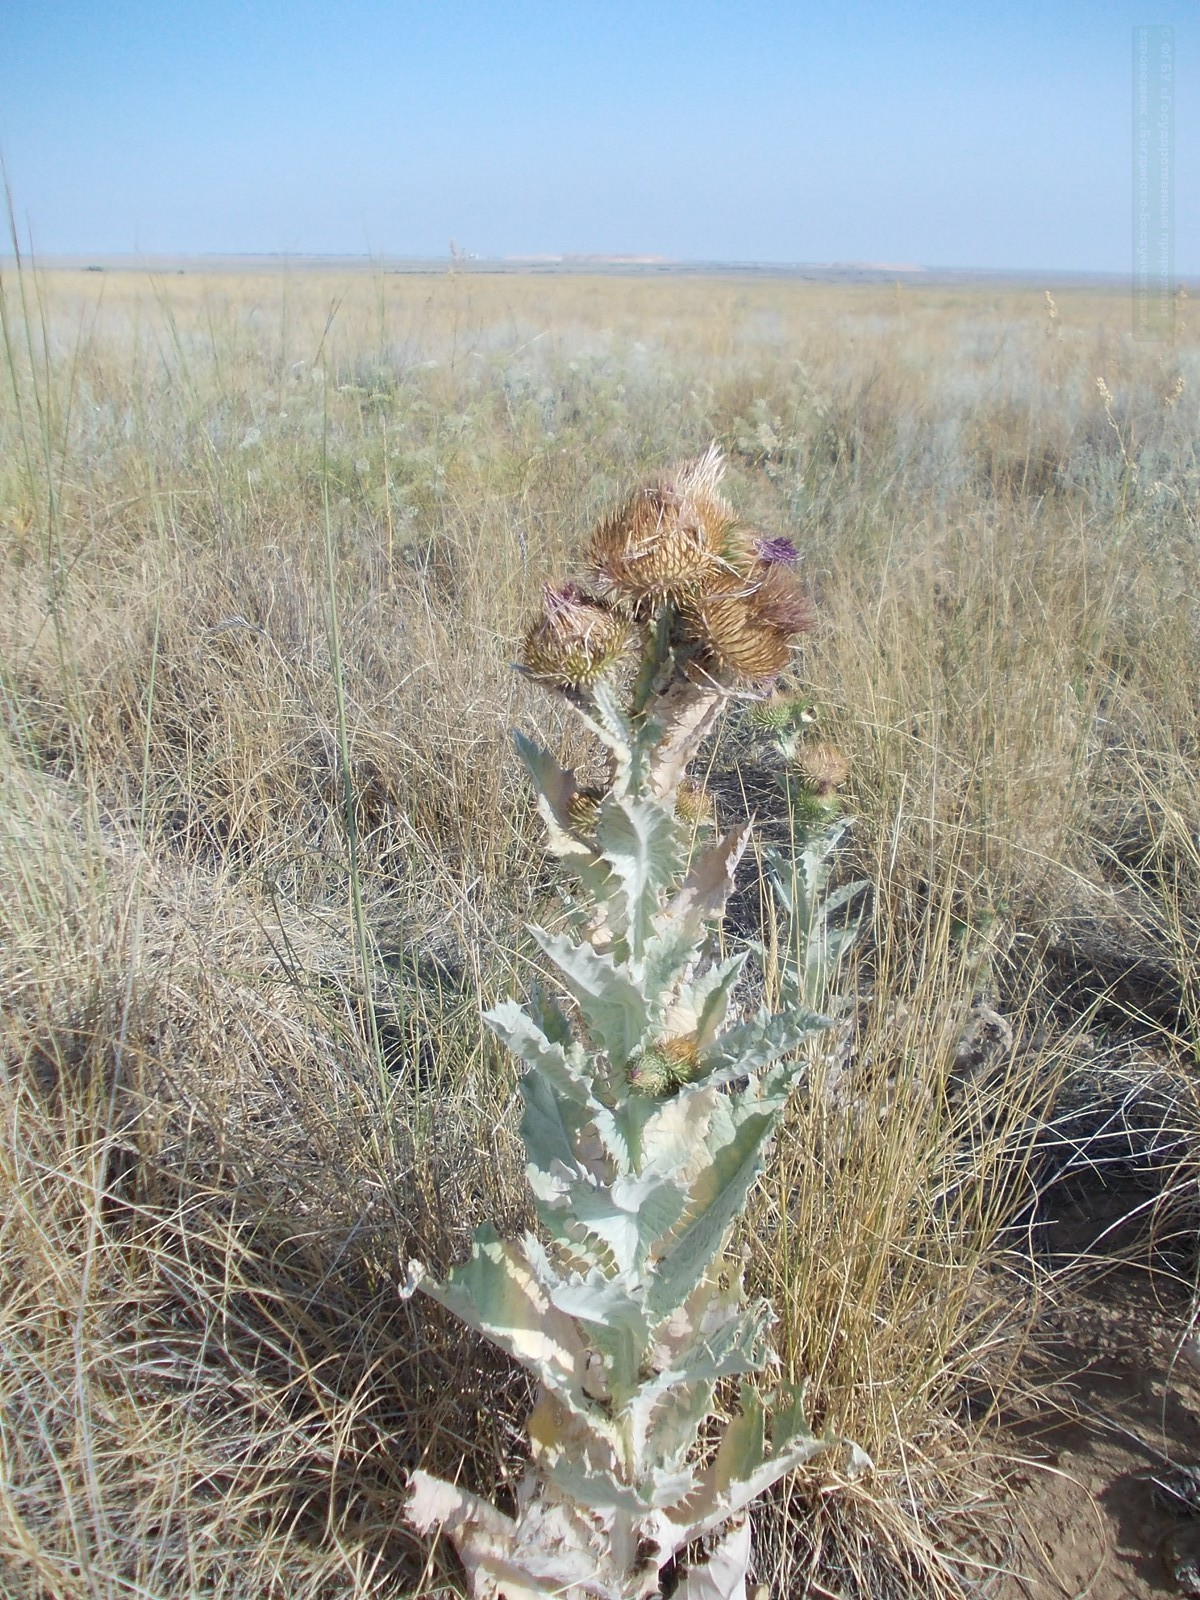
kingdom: Plantae
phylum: Tracheophyta
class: Magnoliopsida
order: Asterales
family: Asteraceae
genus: Onopordum
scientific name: Onopordum acanthium
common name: Scotch thistle
